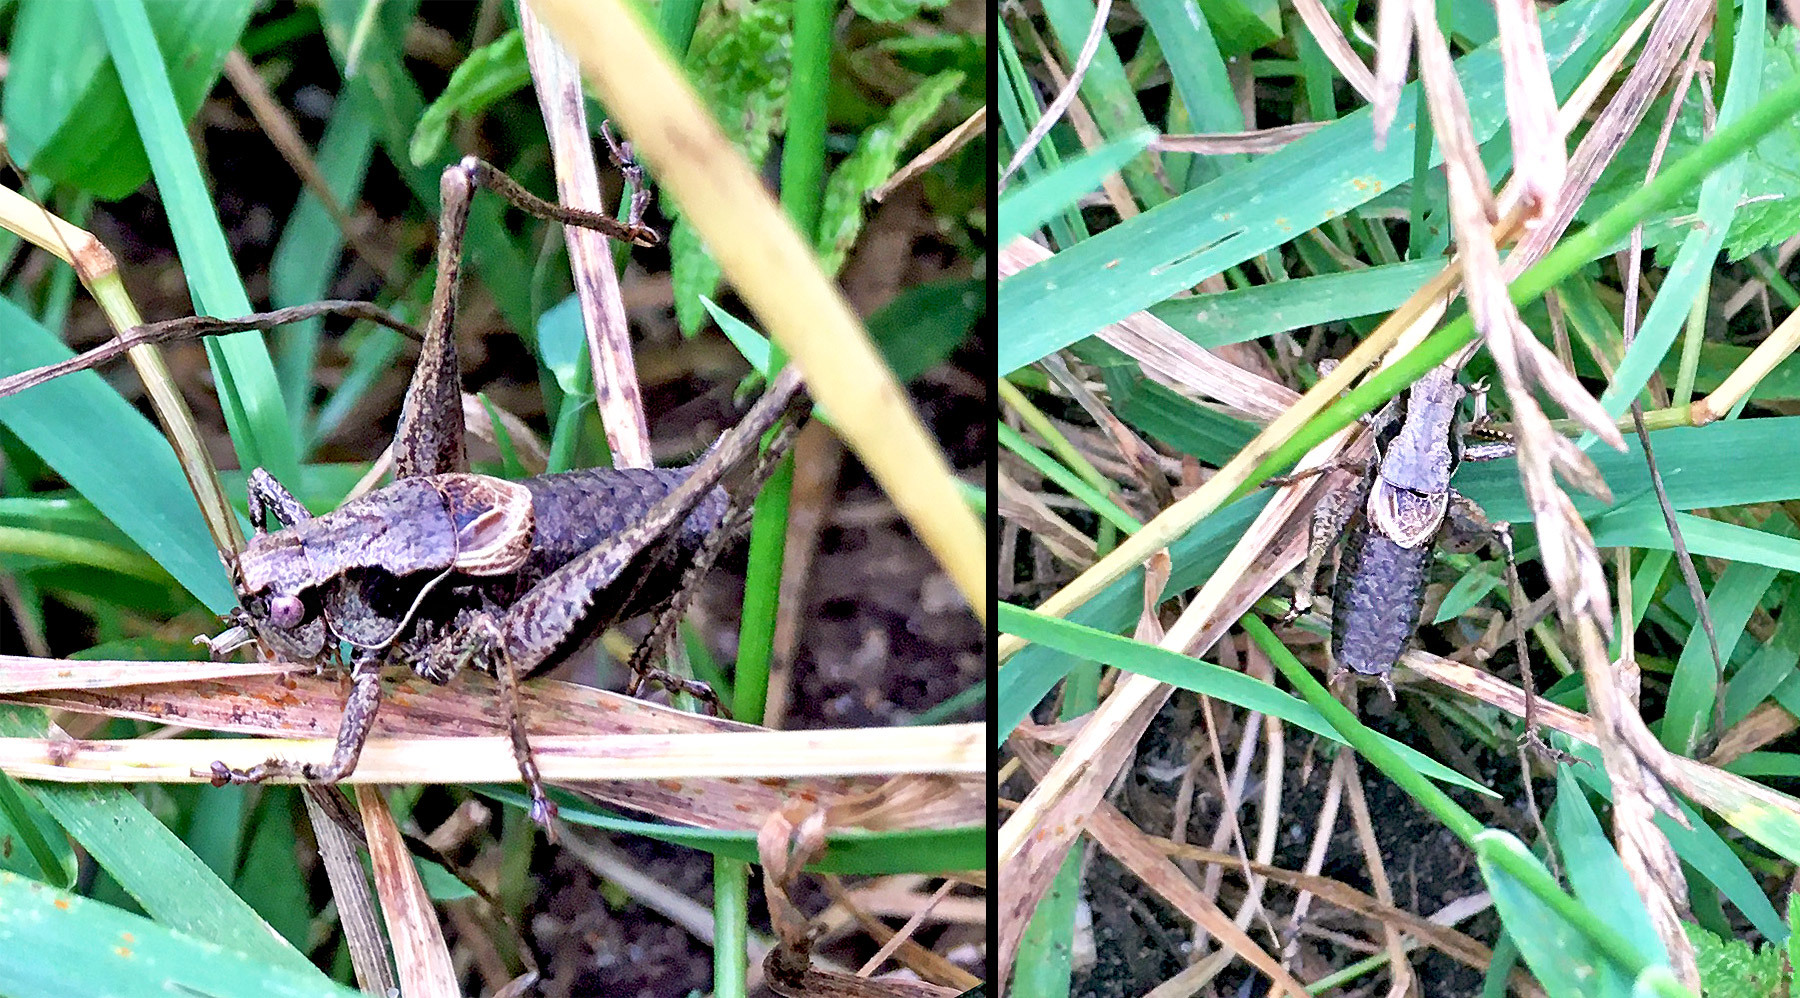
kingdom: Animalia
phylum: Arthropoda
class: Insecta
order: Orthoptera
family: Tettigoniidae
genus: Pholidoptera
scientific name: Pholidoptera griseoaptera
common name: Dark bush-cricket
